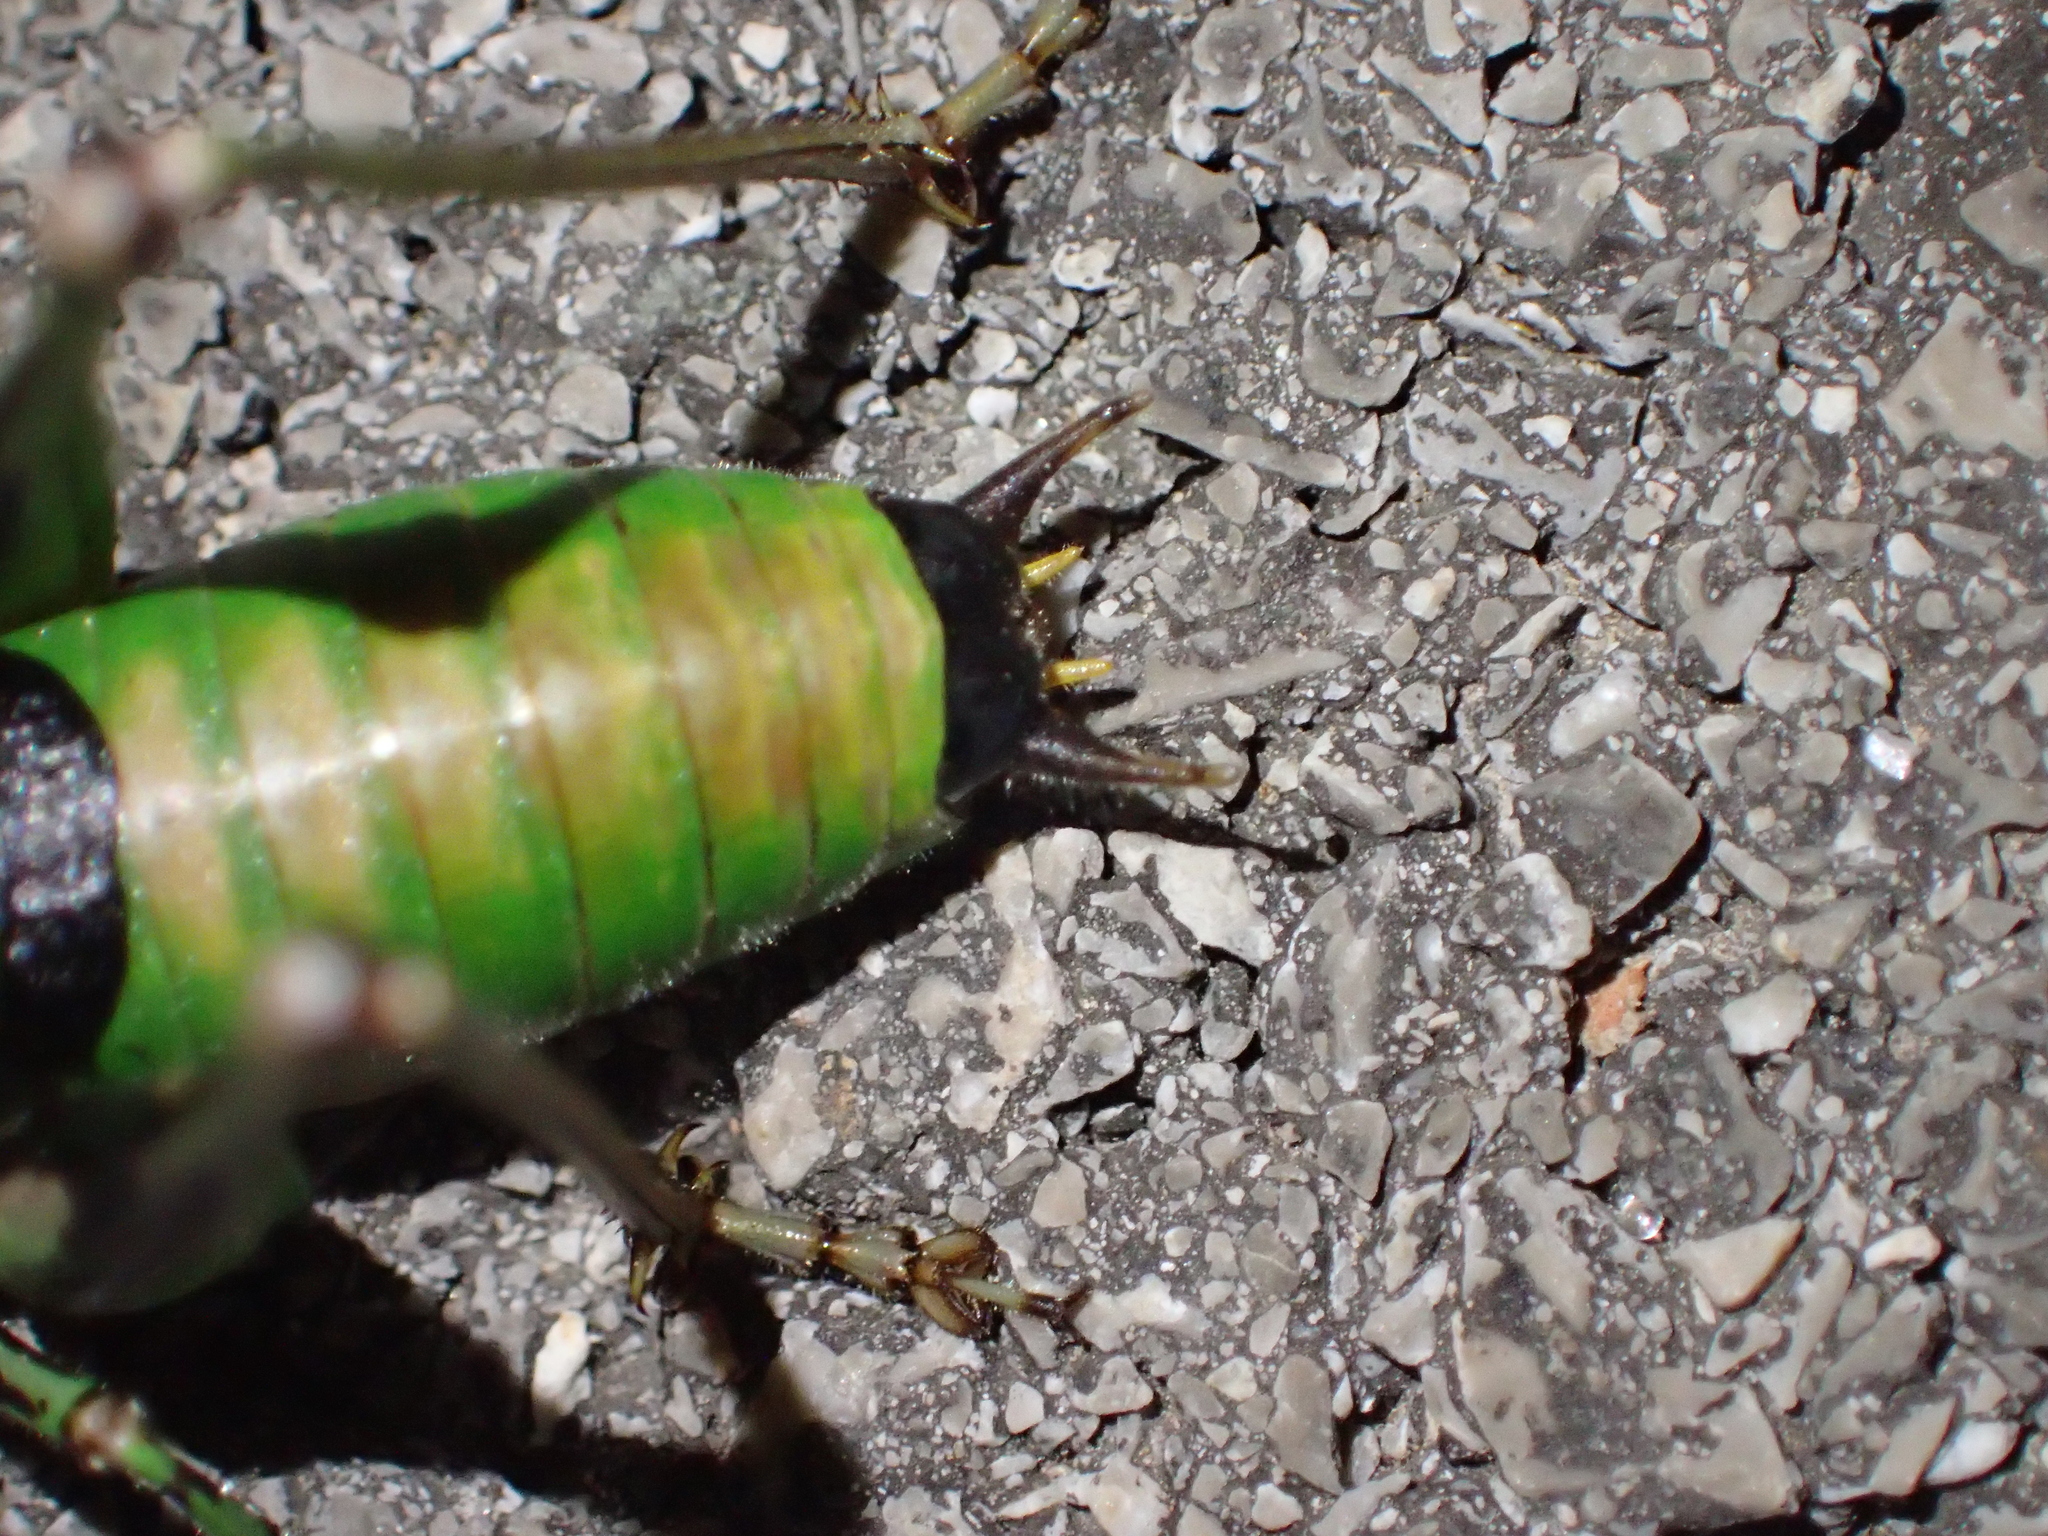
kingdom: Animalia
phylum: Arthropoda
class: Insecta
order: Orthoptera
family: Tettigoniidae
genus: Eupholidoptera
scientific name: Eupholidoptera schmidti
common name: Schmidt's marbled bush-cricket
